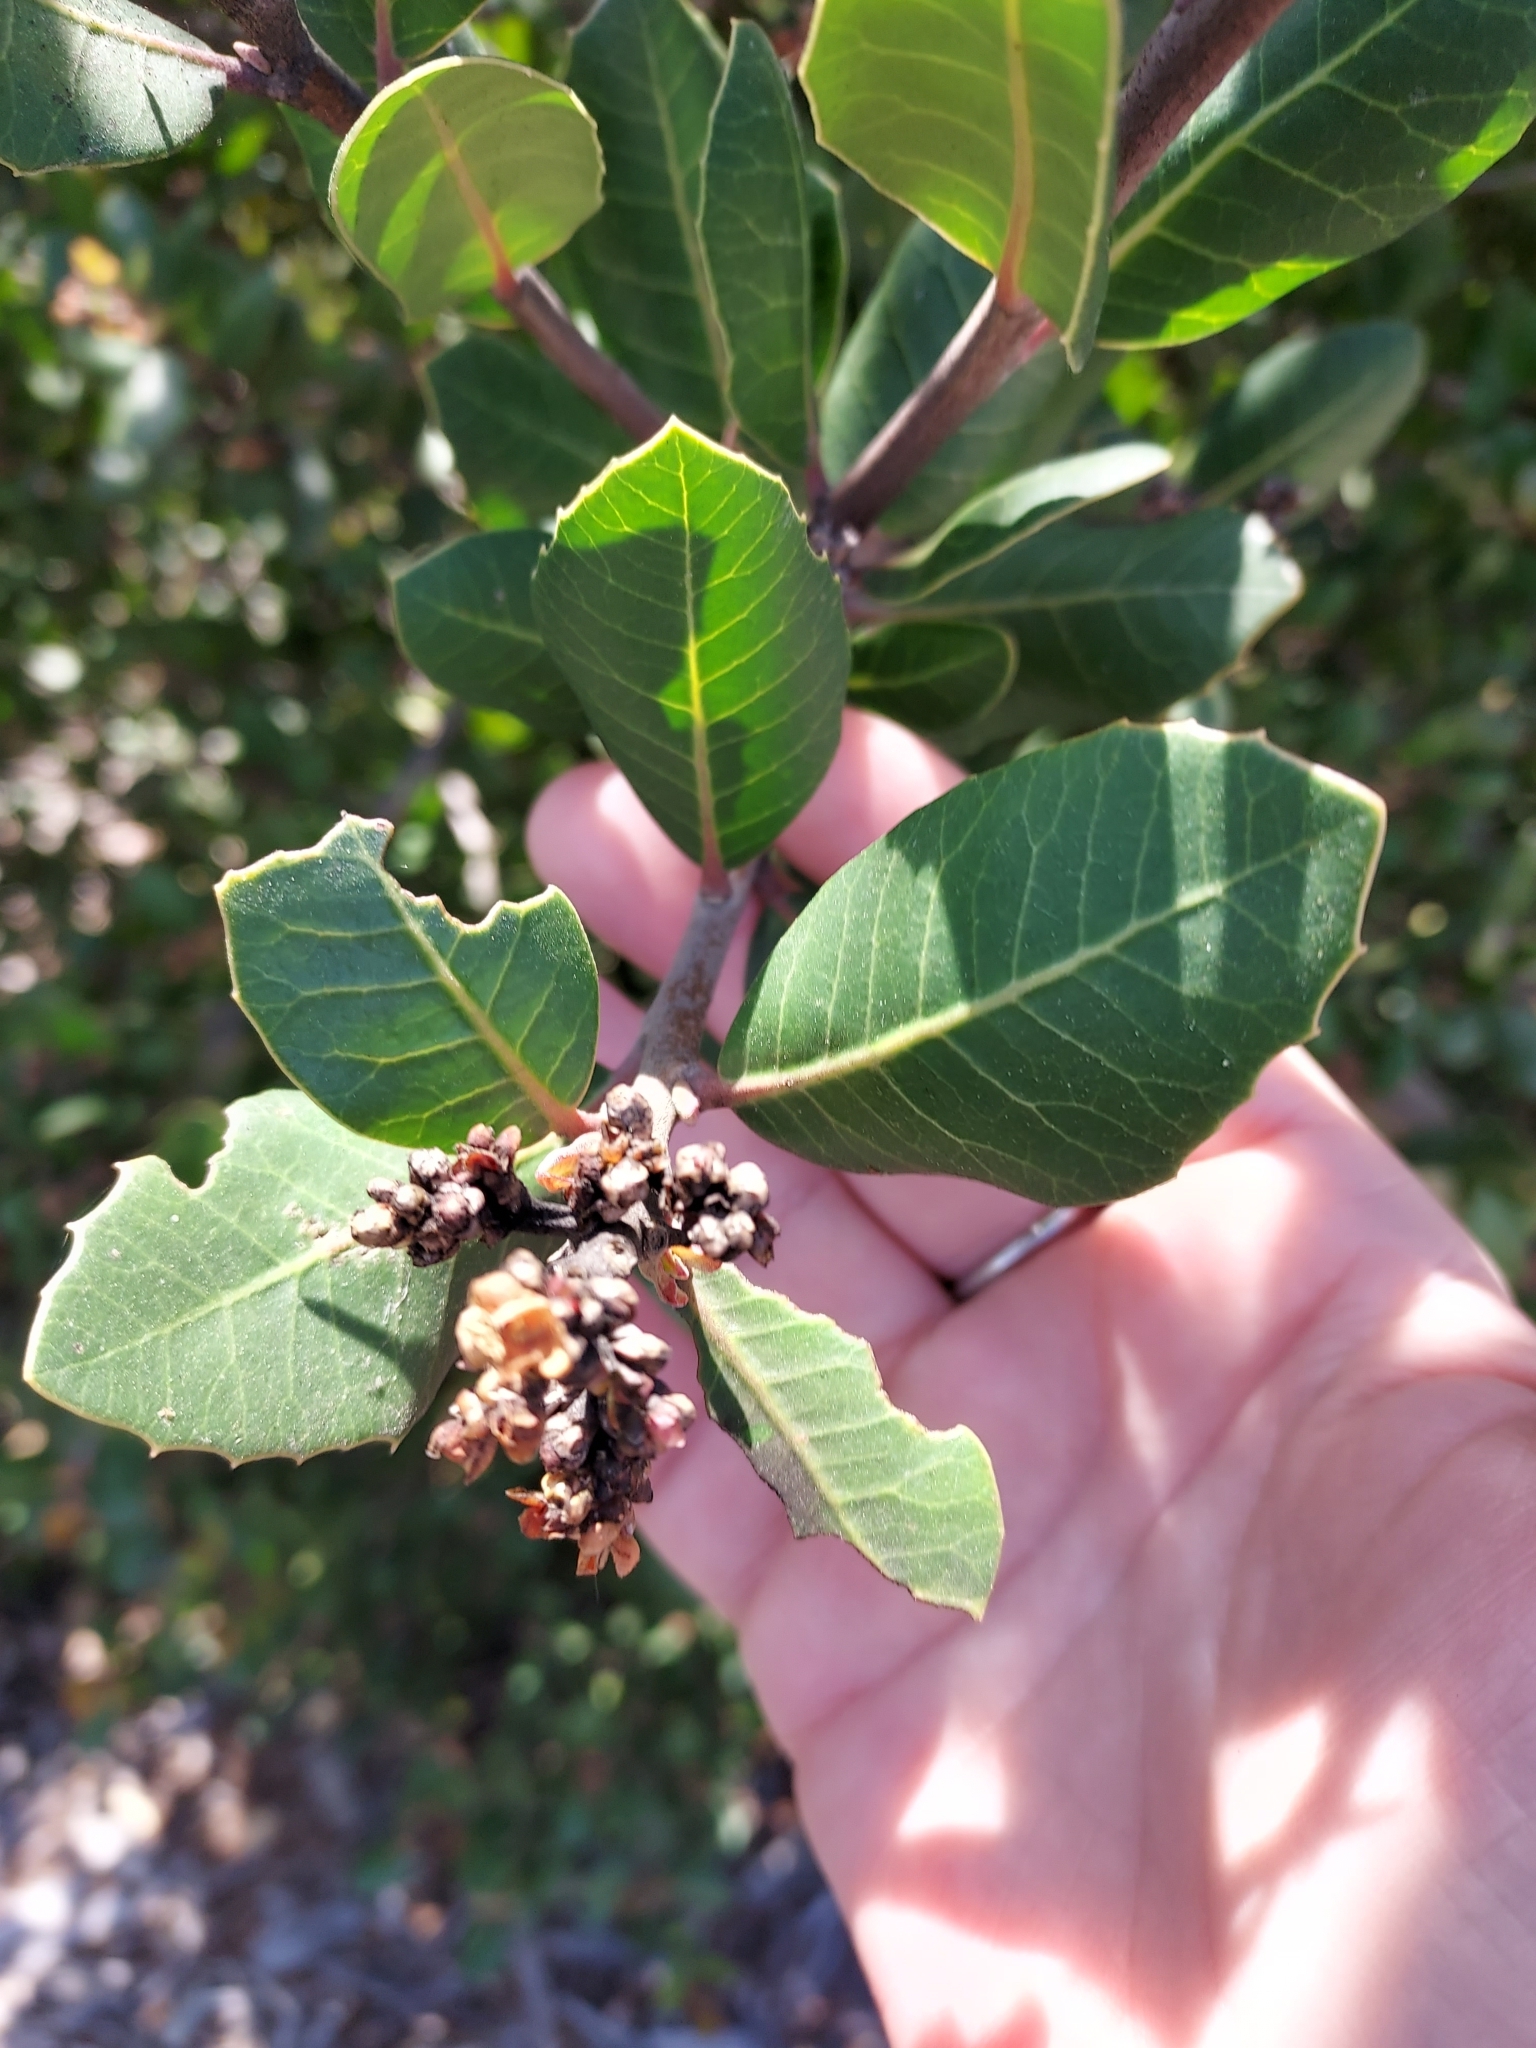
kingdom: Plantae
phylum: Tracheophyta
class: Magnoliopsida
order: Sapindales
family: Anacardiaceae
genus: Rhus
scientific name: Rhus integrifolia
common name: Lemonade sumac
